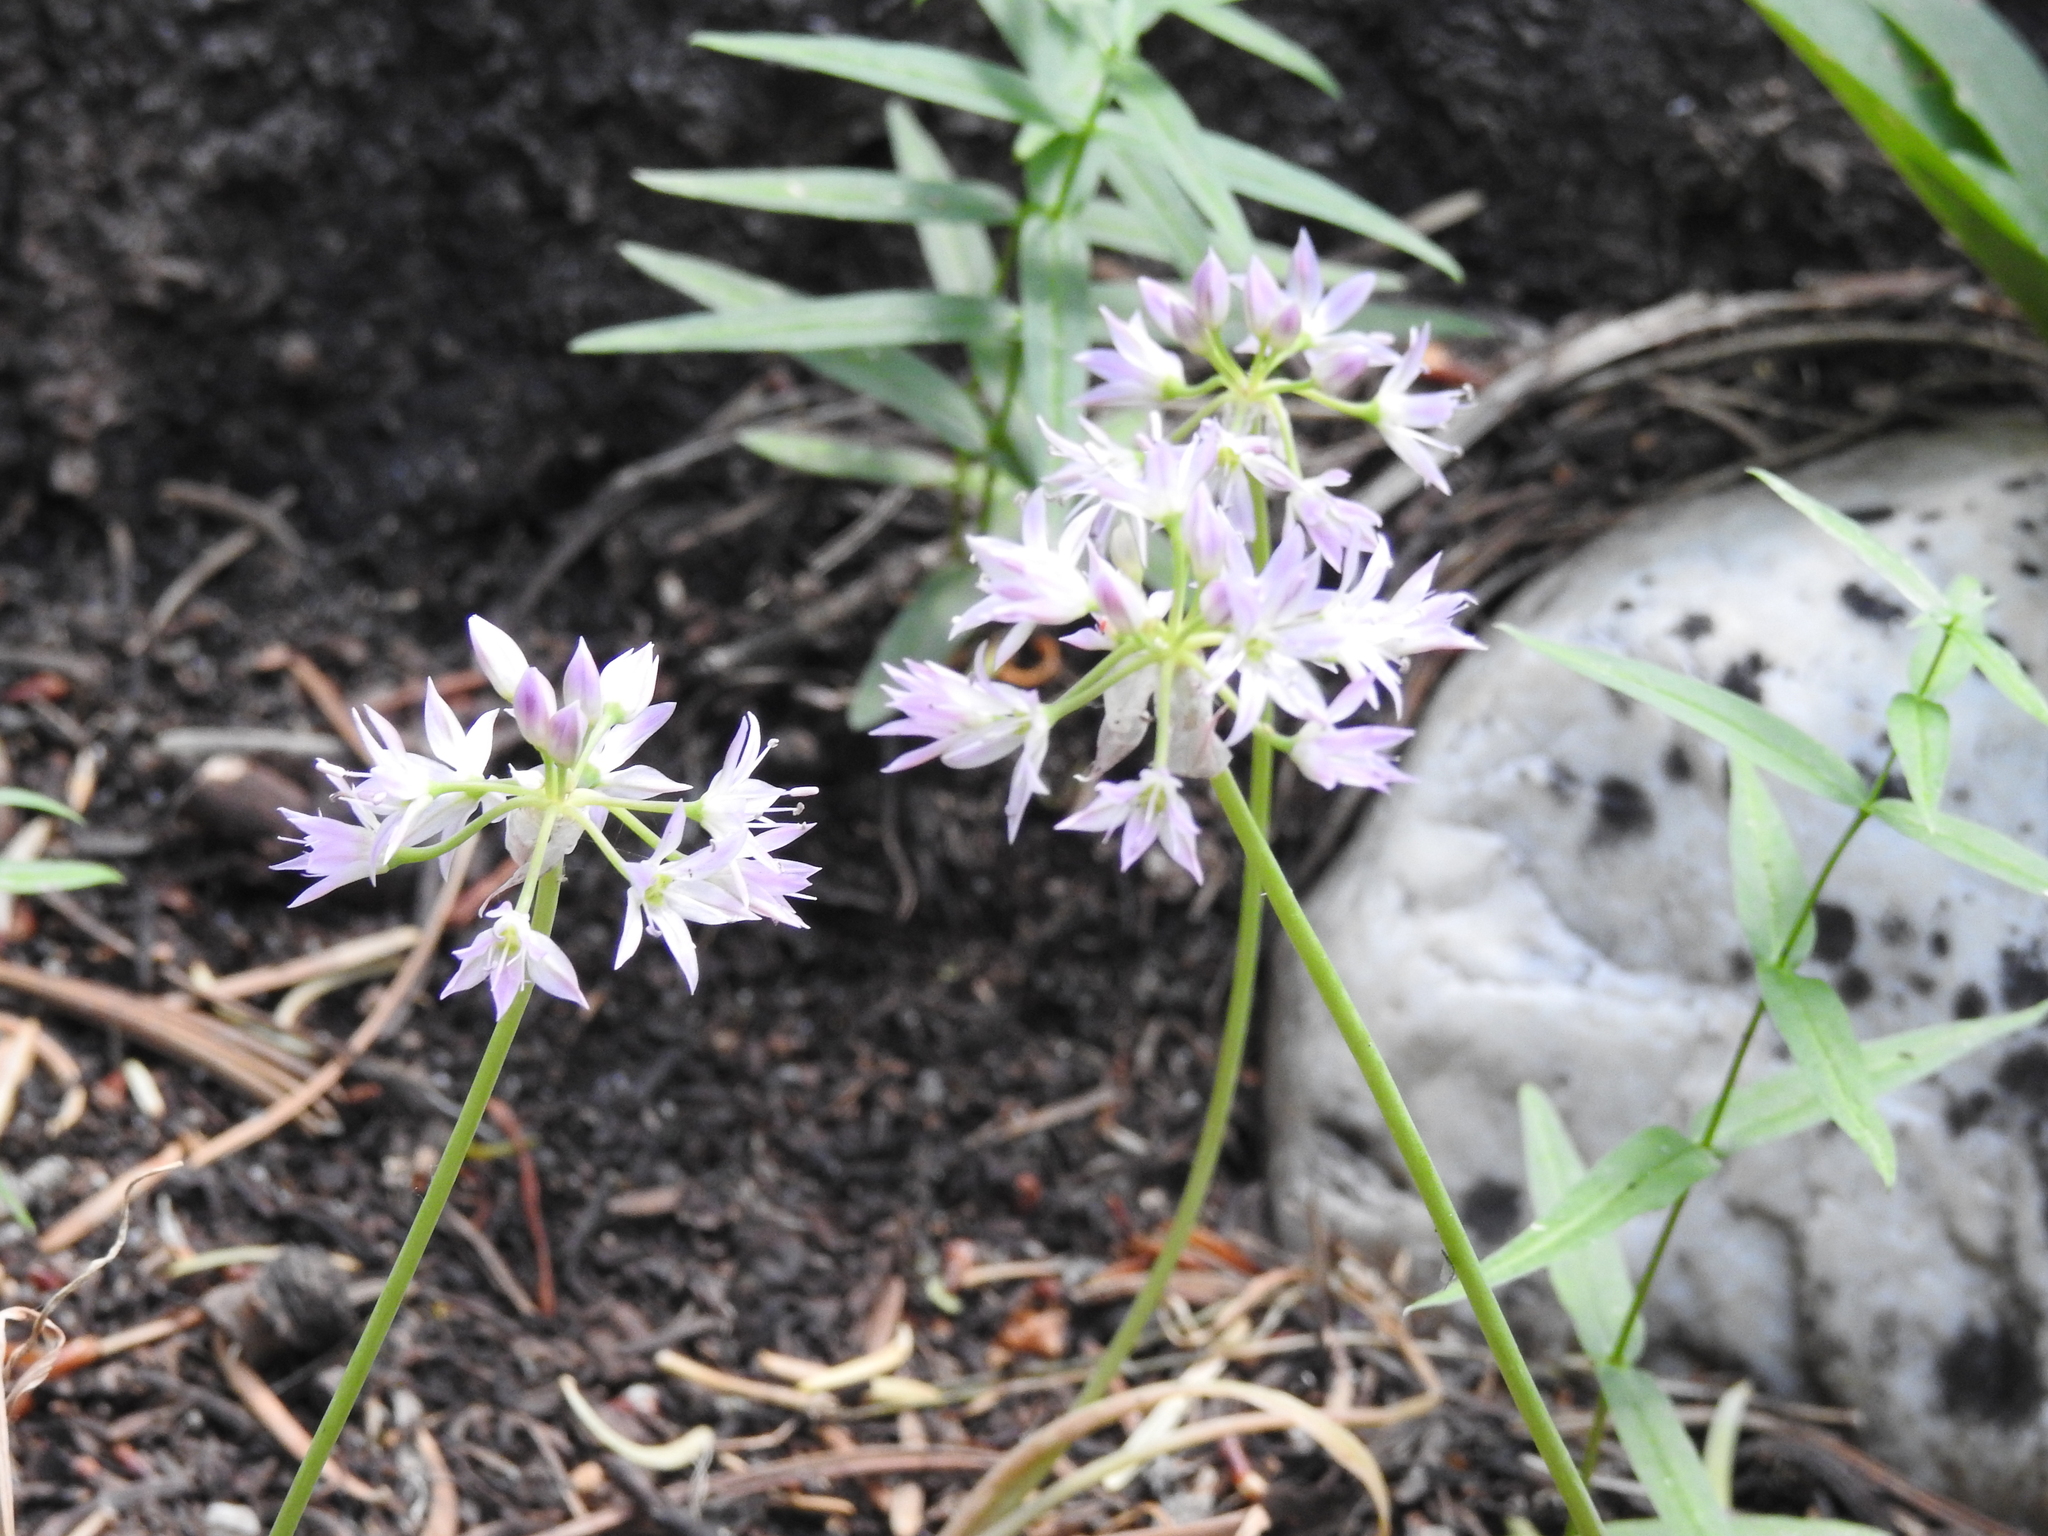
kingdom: Plantae
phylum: Tracheophyta
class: Liliopsida
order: Asparagales
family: Amaryllidaceae
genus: Allium
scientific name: Allium bisceptrum
